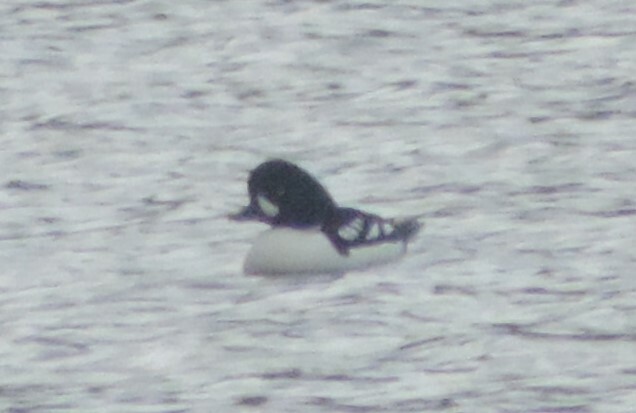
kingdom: Animalia
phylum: Chordata
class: Aves
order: Anseriformes
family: Anatidae
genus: Bucephala
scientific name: Bucephala islandica
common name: Barrow's goldeneye
